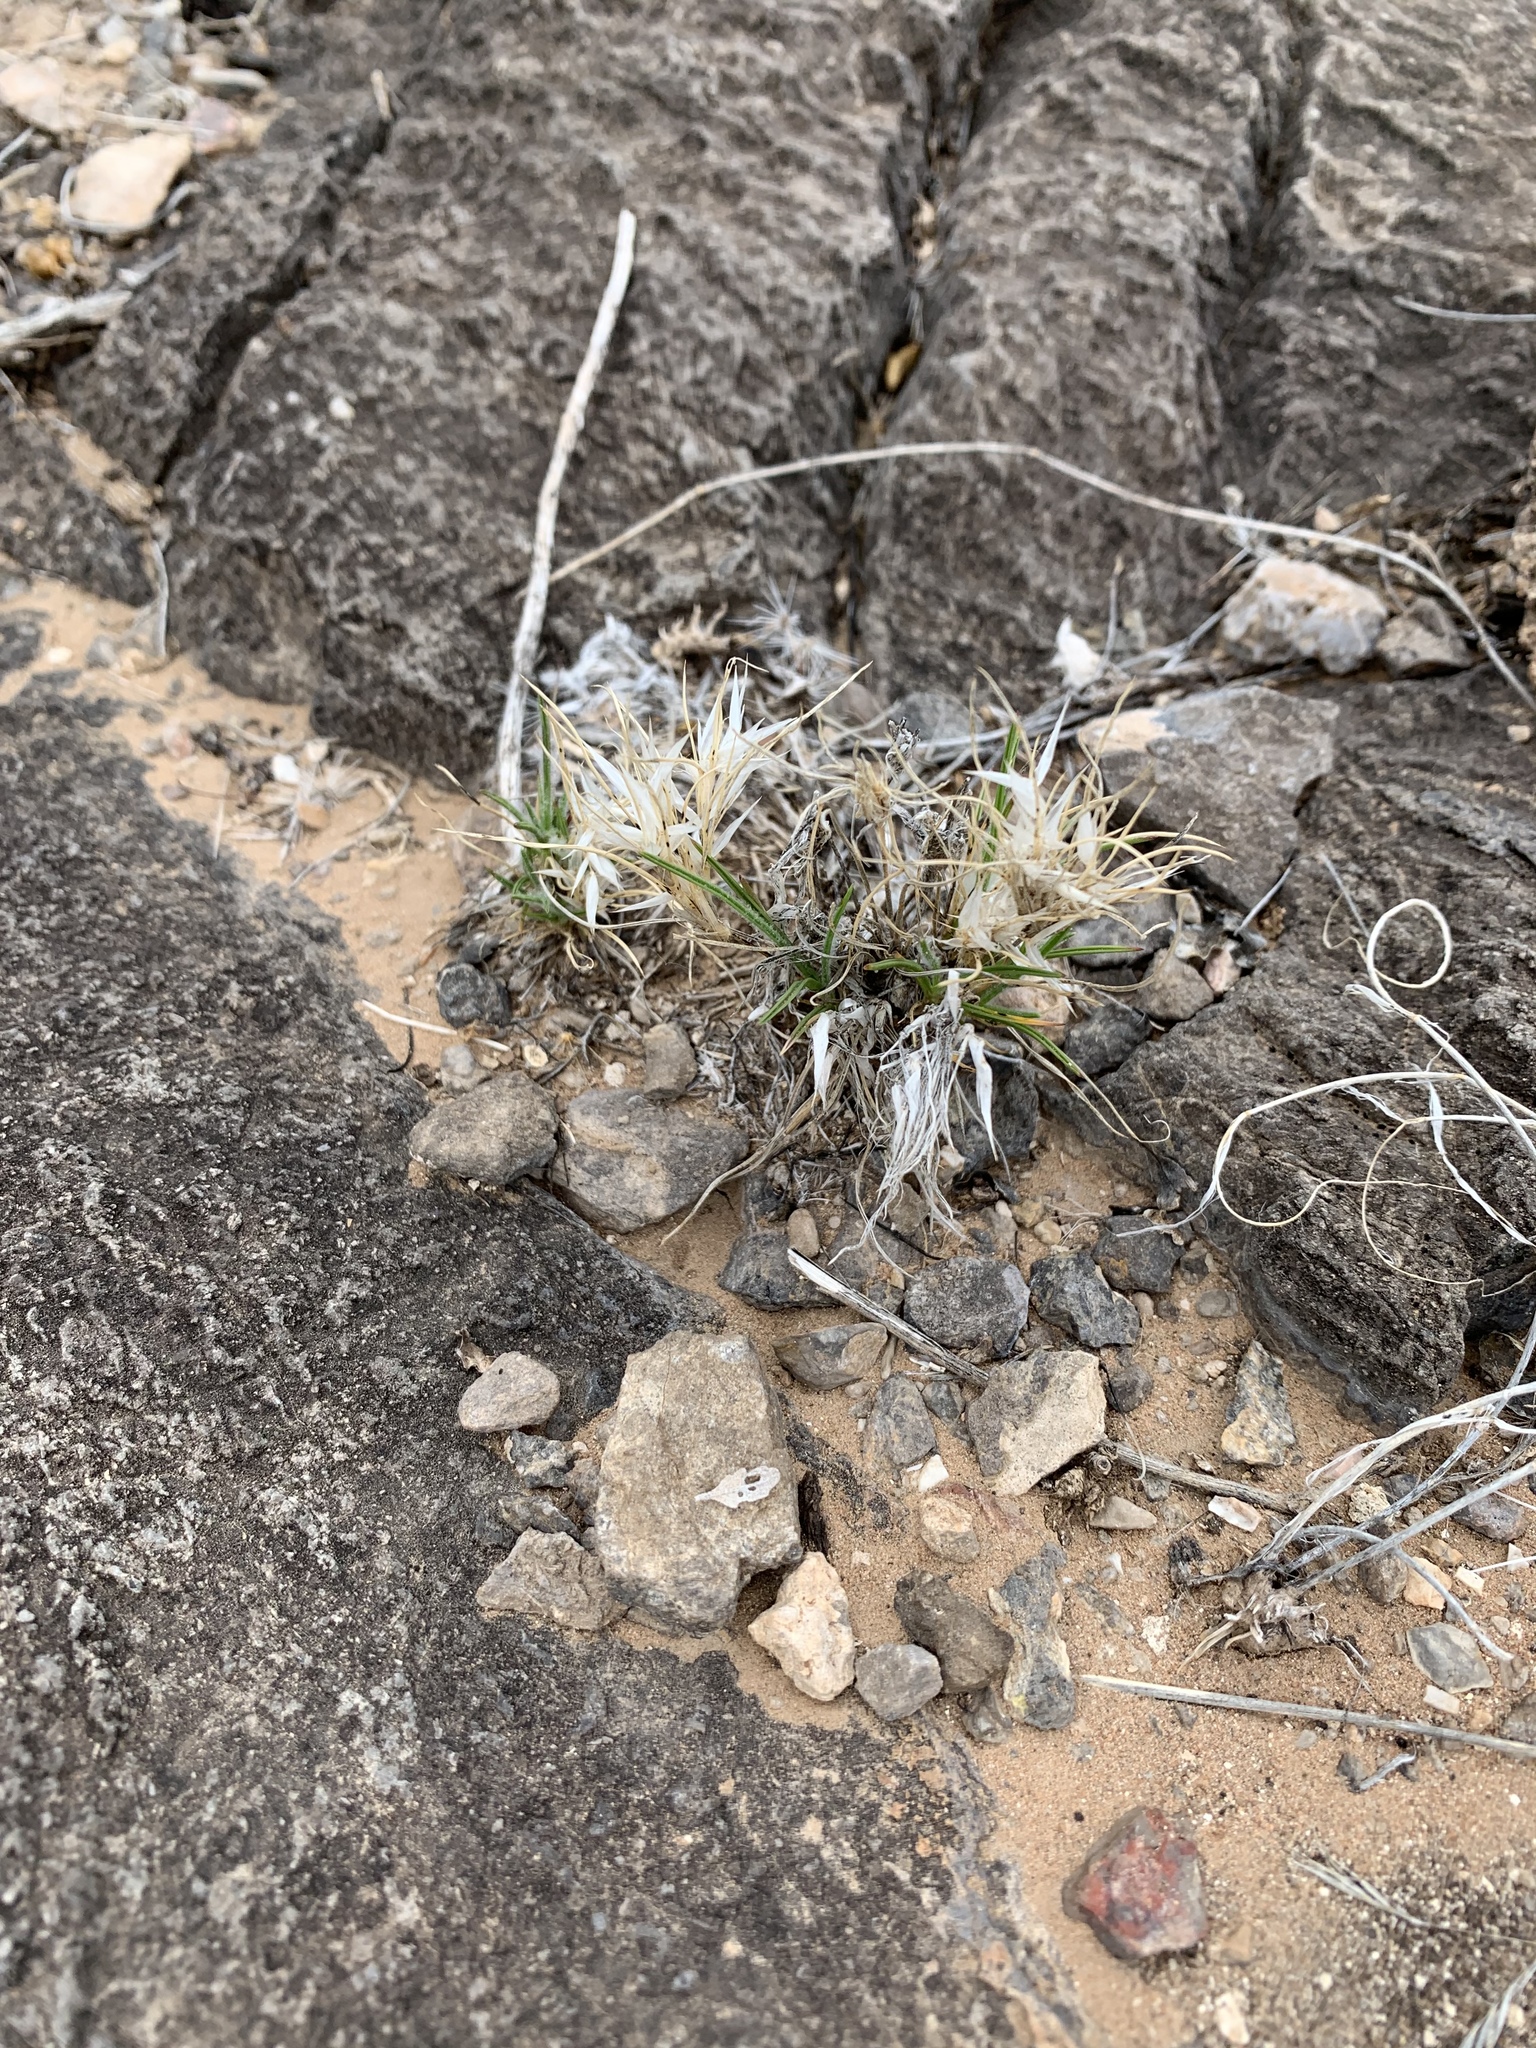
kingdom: Plantae
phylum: Tracheophyta
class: Liliopsida
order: Poales
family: Poaceae
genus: Dasyochloa
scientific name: Dasyochloa pulchella
